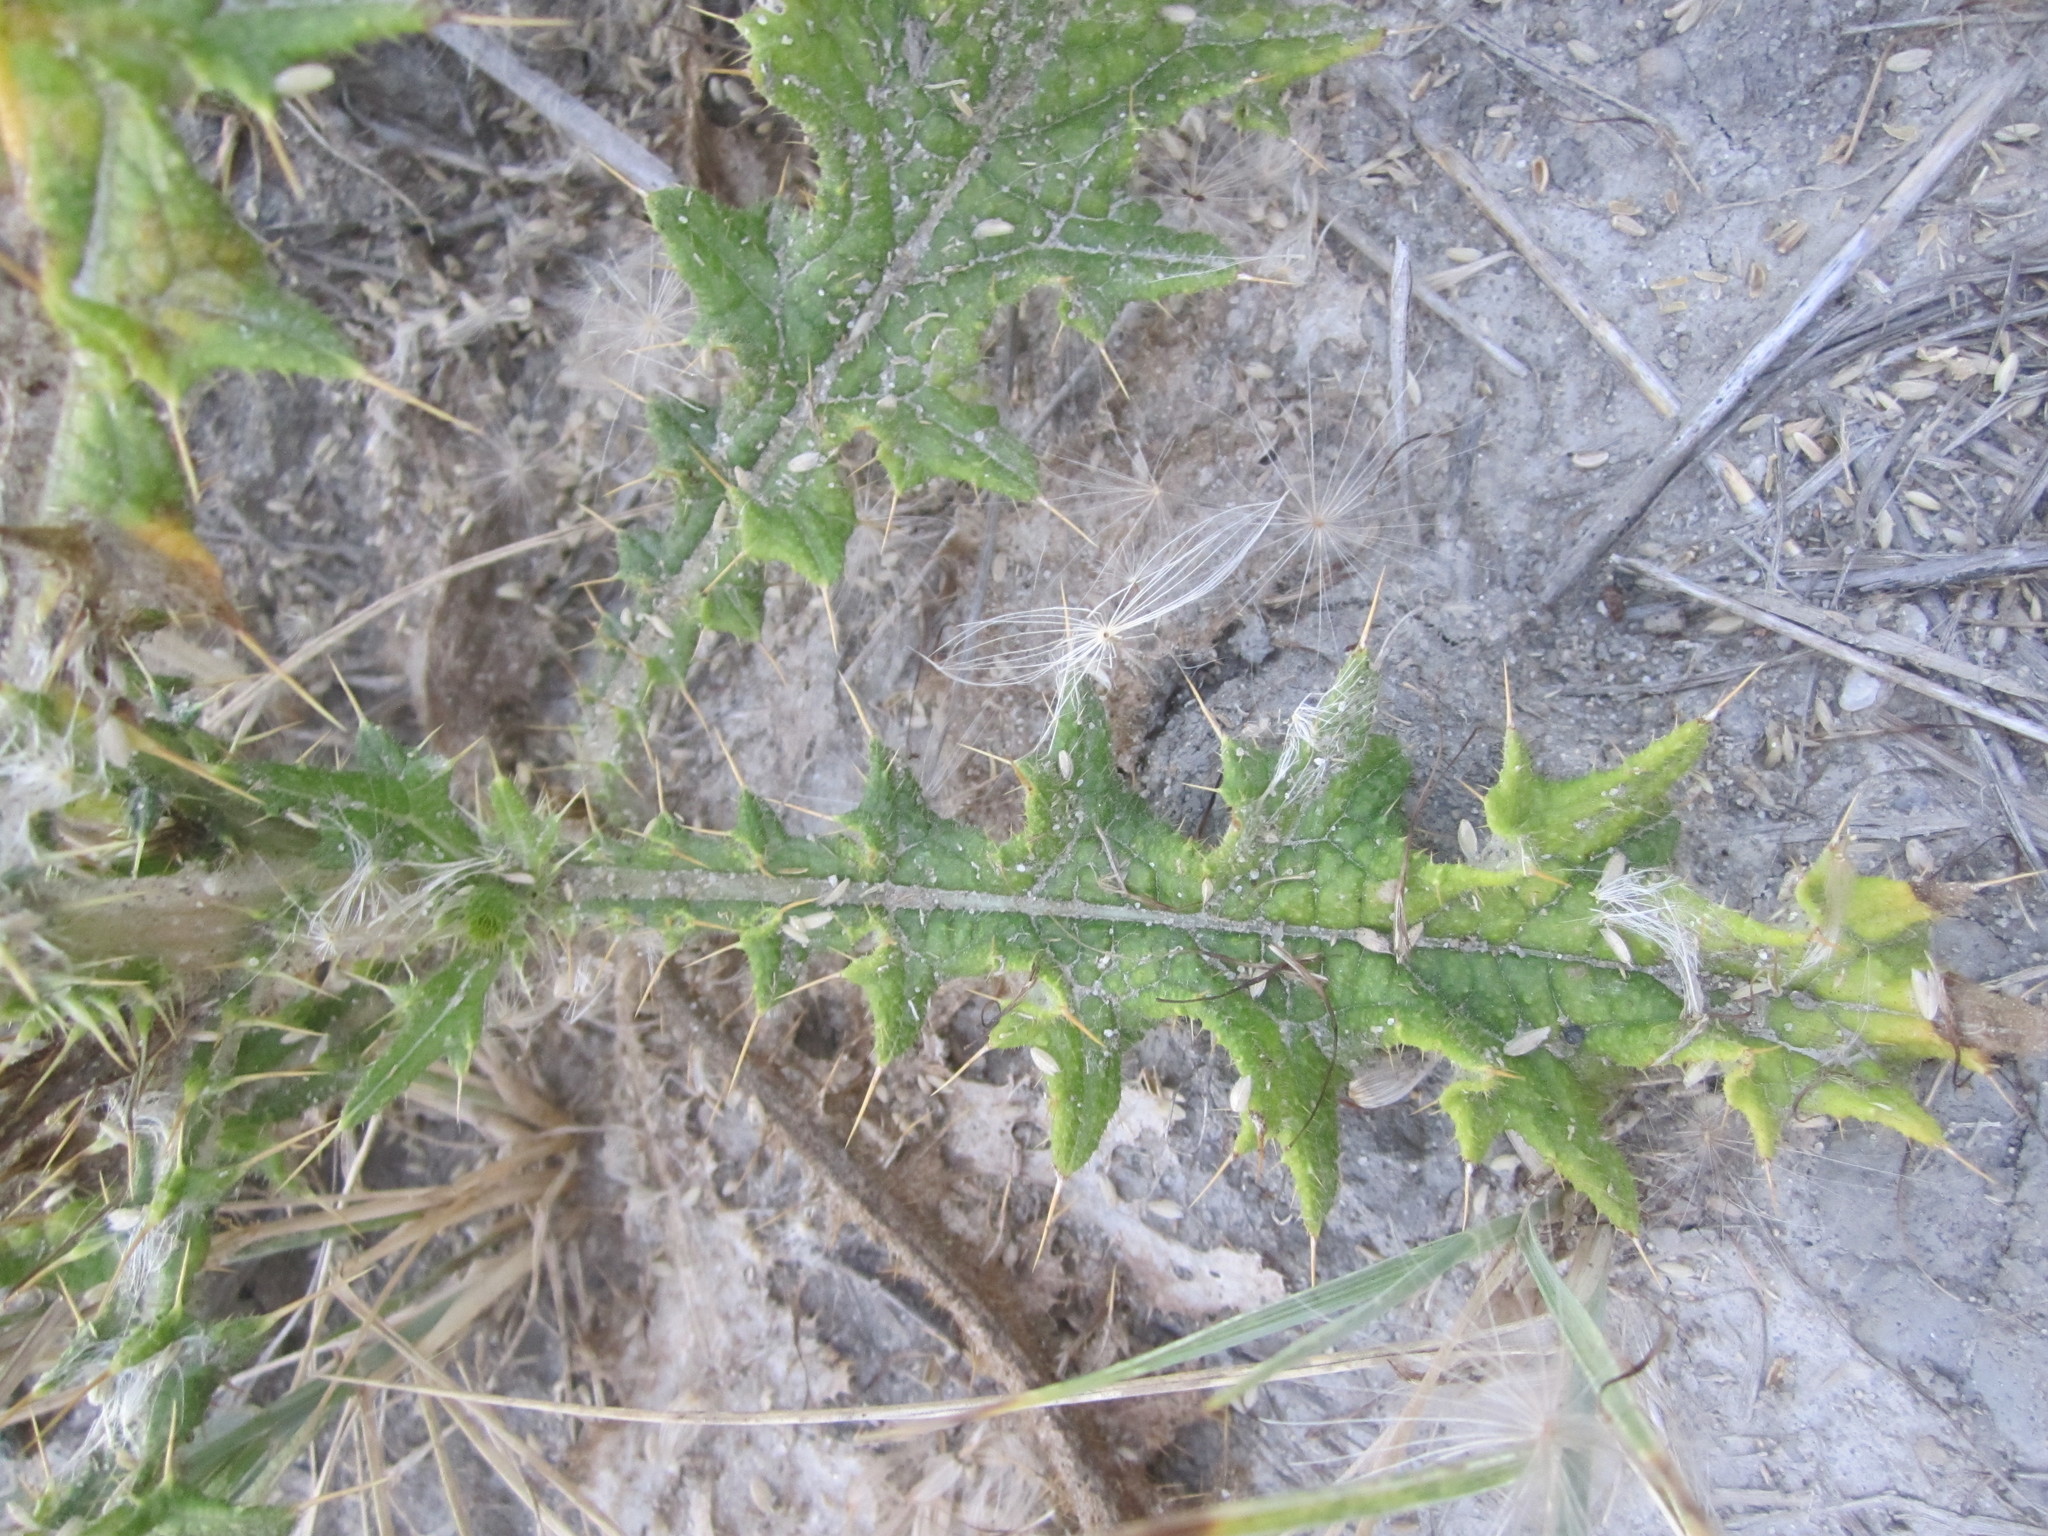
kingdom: Plantae
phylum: Tracheophyta
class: Magnoliopsida
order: Asterales
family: Asteraceae
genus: Cirsium
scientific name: Cirsium vulgare
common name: Bull thistle
